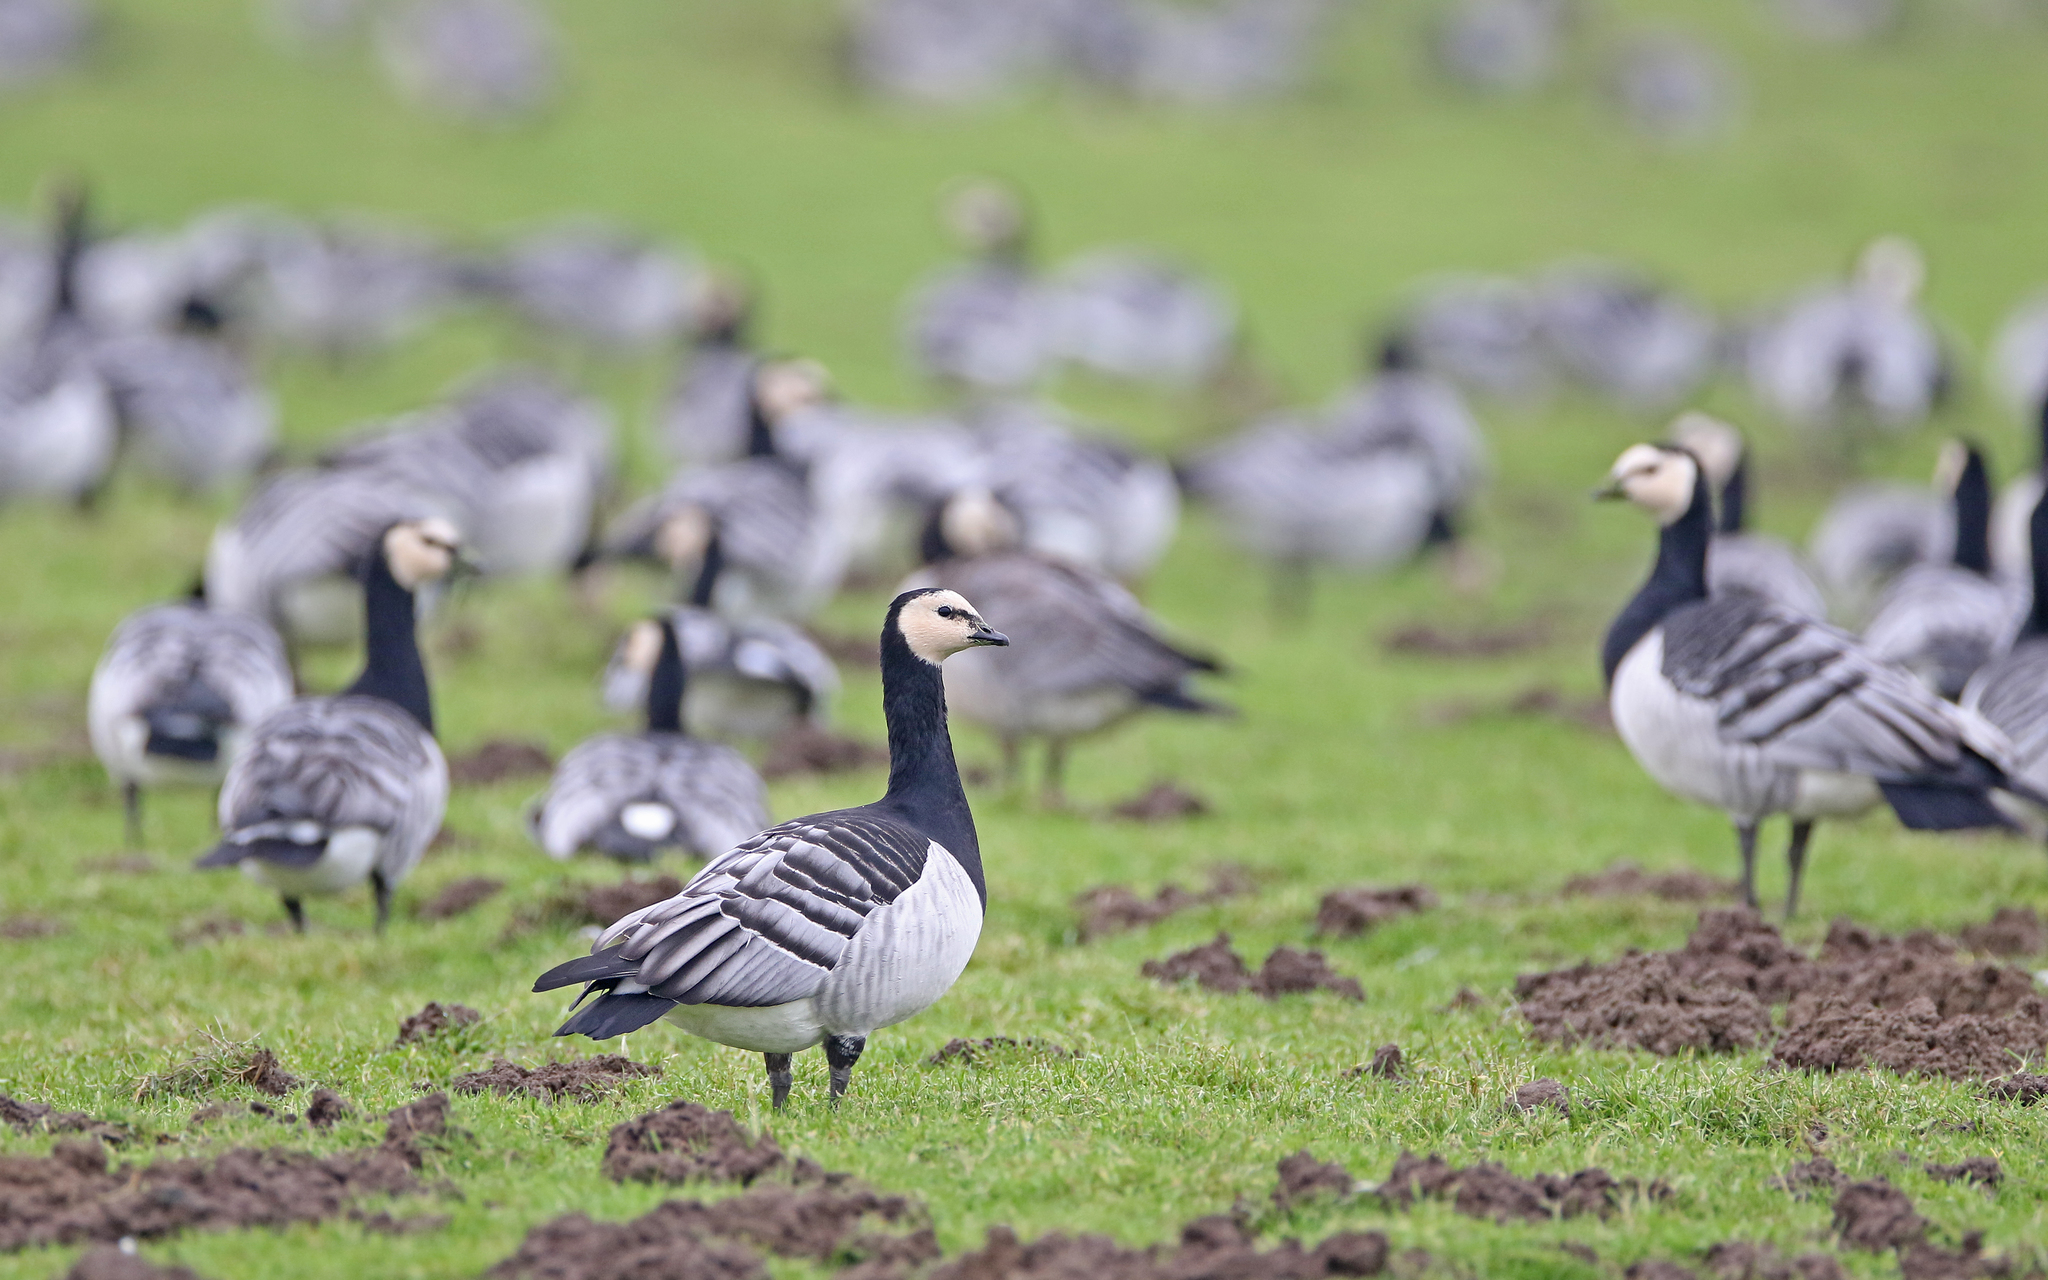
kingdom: Animalia
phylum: Chordata
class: Aves
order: Anseriformes
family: Anatidae
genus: Branta
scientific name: Branta leucopsis
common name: Barnacle goose
